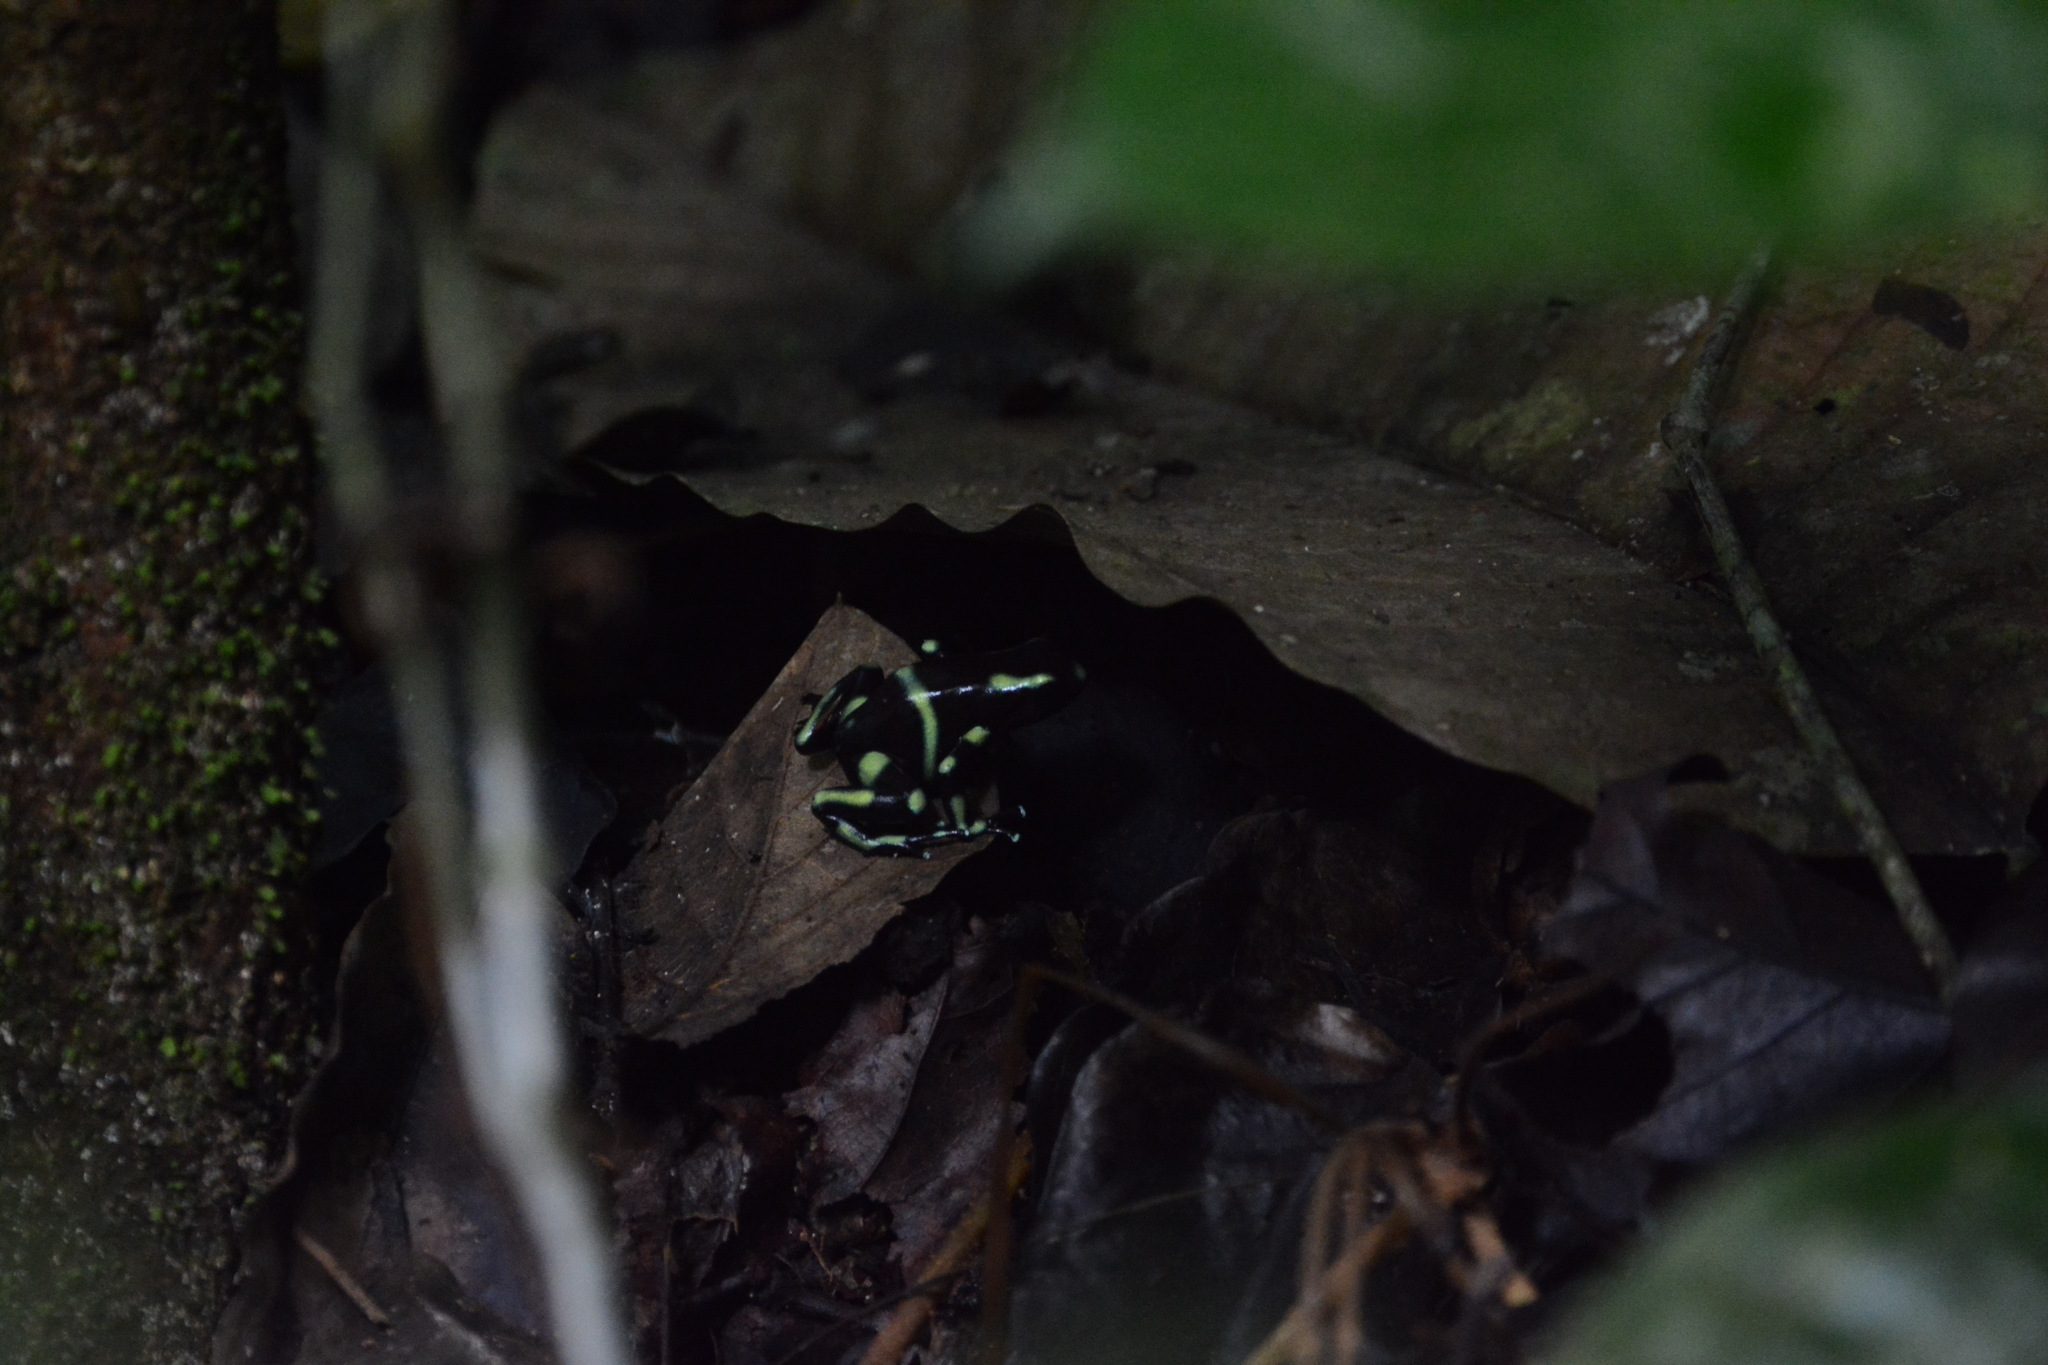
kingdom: Animalia
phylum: Chordata
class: Amphibia
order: Anura
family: Dendrobatidae
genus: Dendrobates
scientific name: Dendrobates auratus
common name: Green and black poison dart frog
